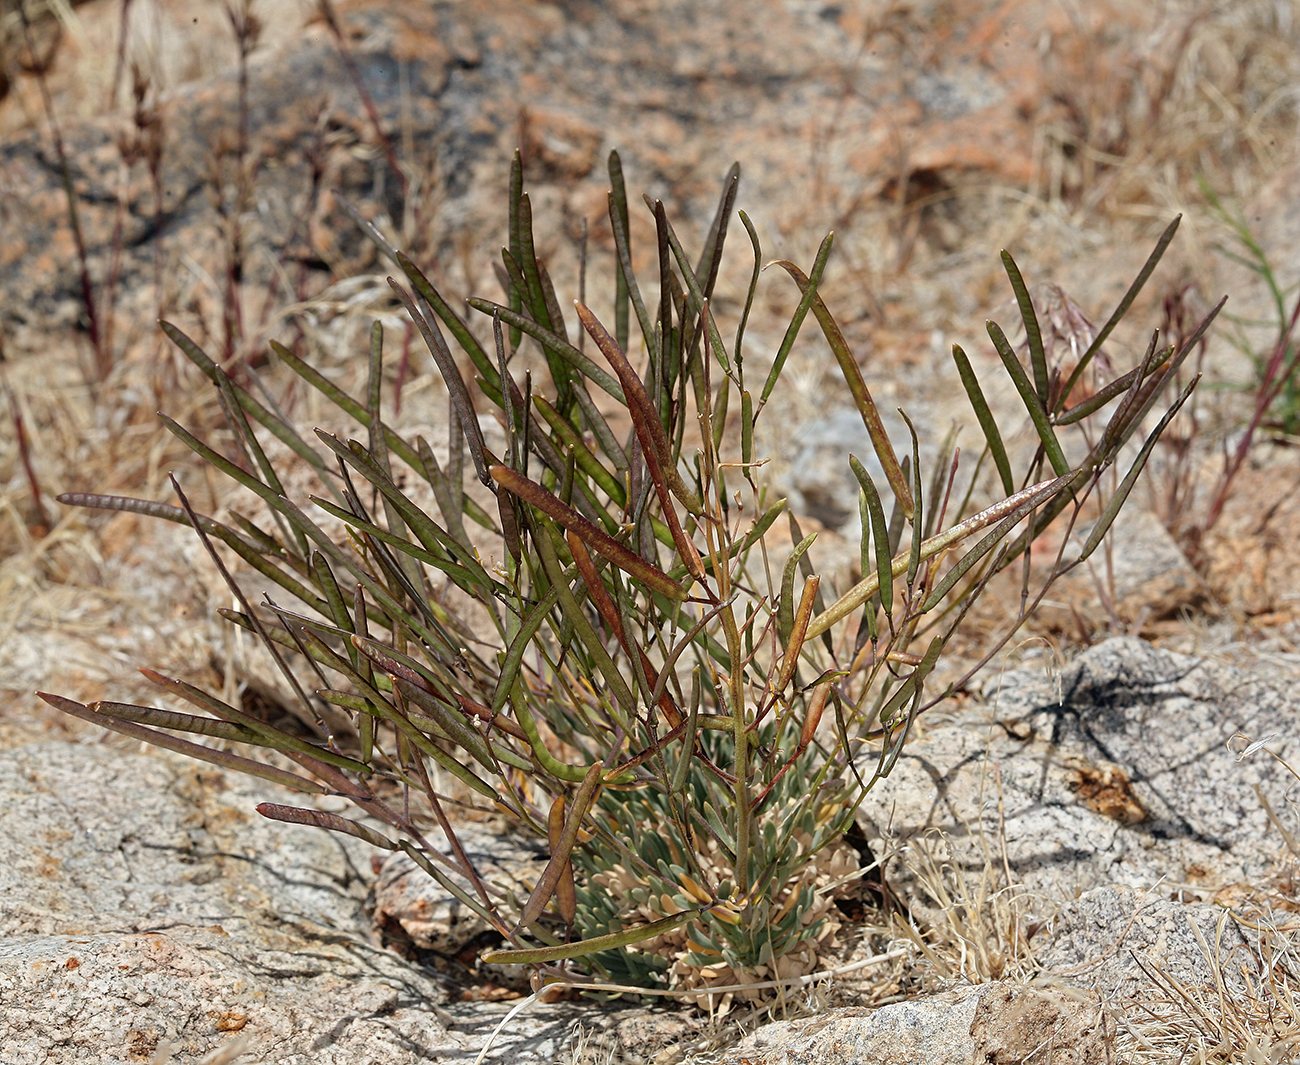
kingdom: Plantae
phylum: Tracheophyta
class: Magnoliopsida
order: Brassicales
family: Brassicaceae
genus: Boechera
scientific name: Boechera dispar
